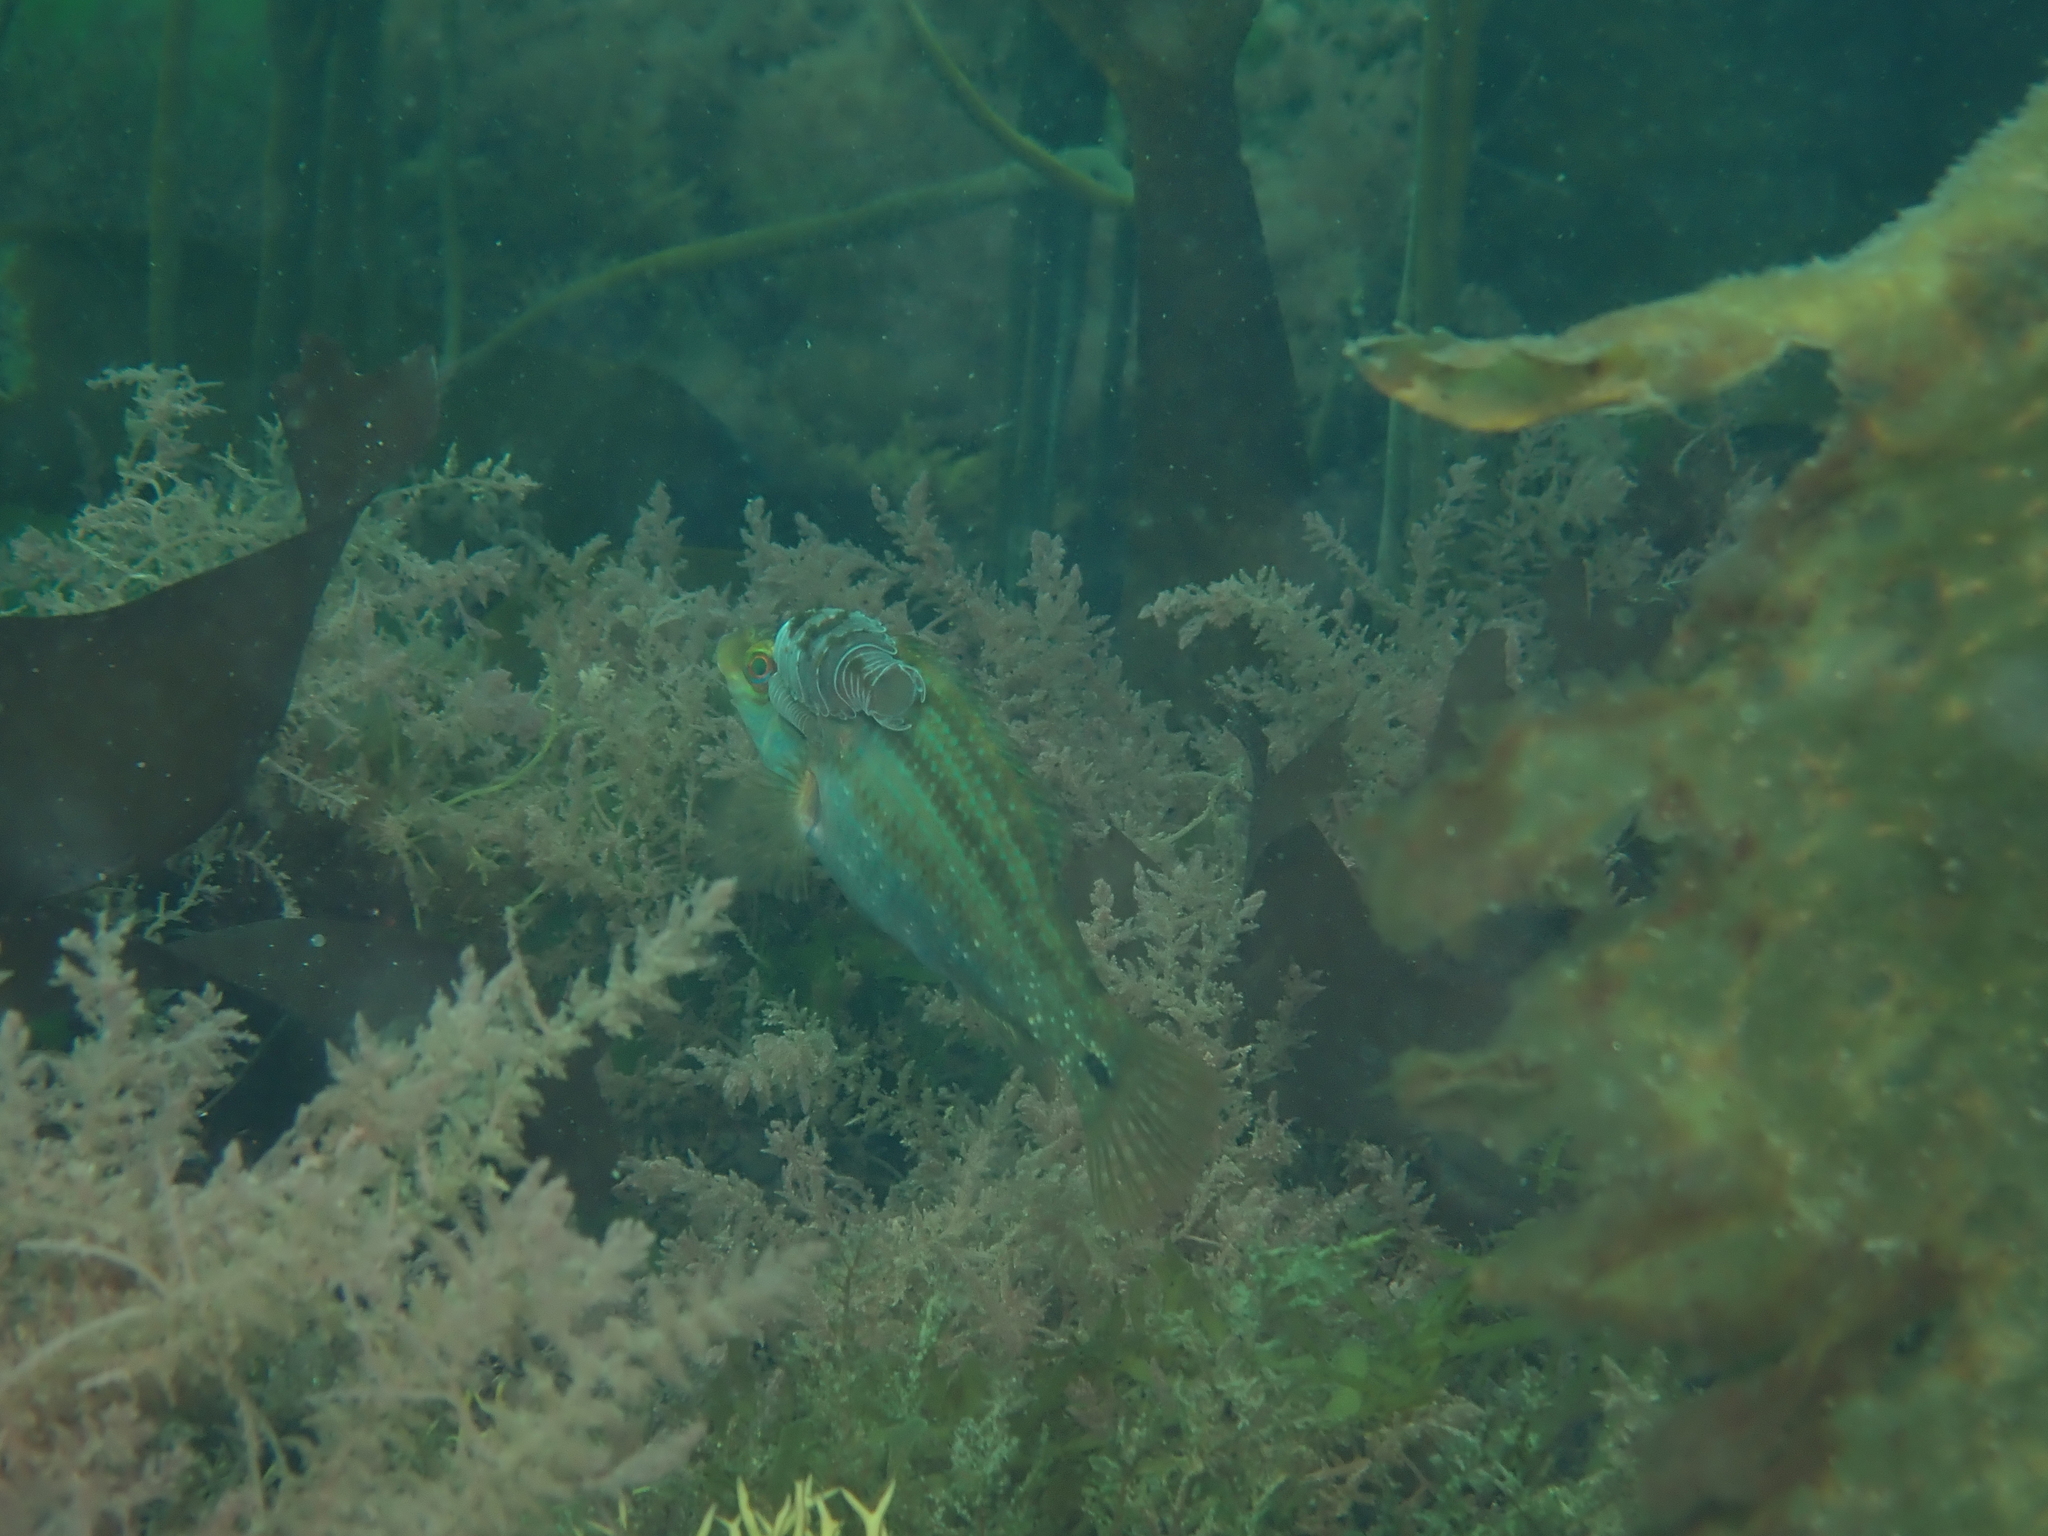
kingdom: Animalia
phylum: Arthropoda
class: Malacostraca
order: Isopoda
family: Cymothoidae
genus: Anilocra
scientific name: Anilocra frontalis
